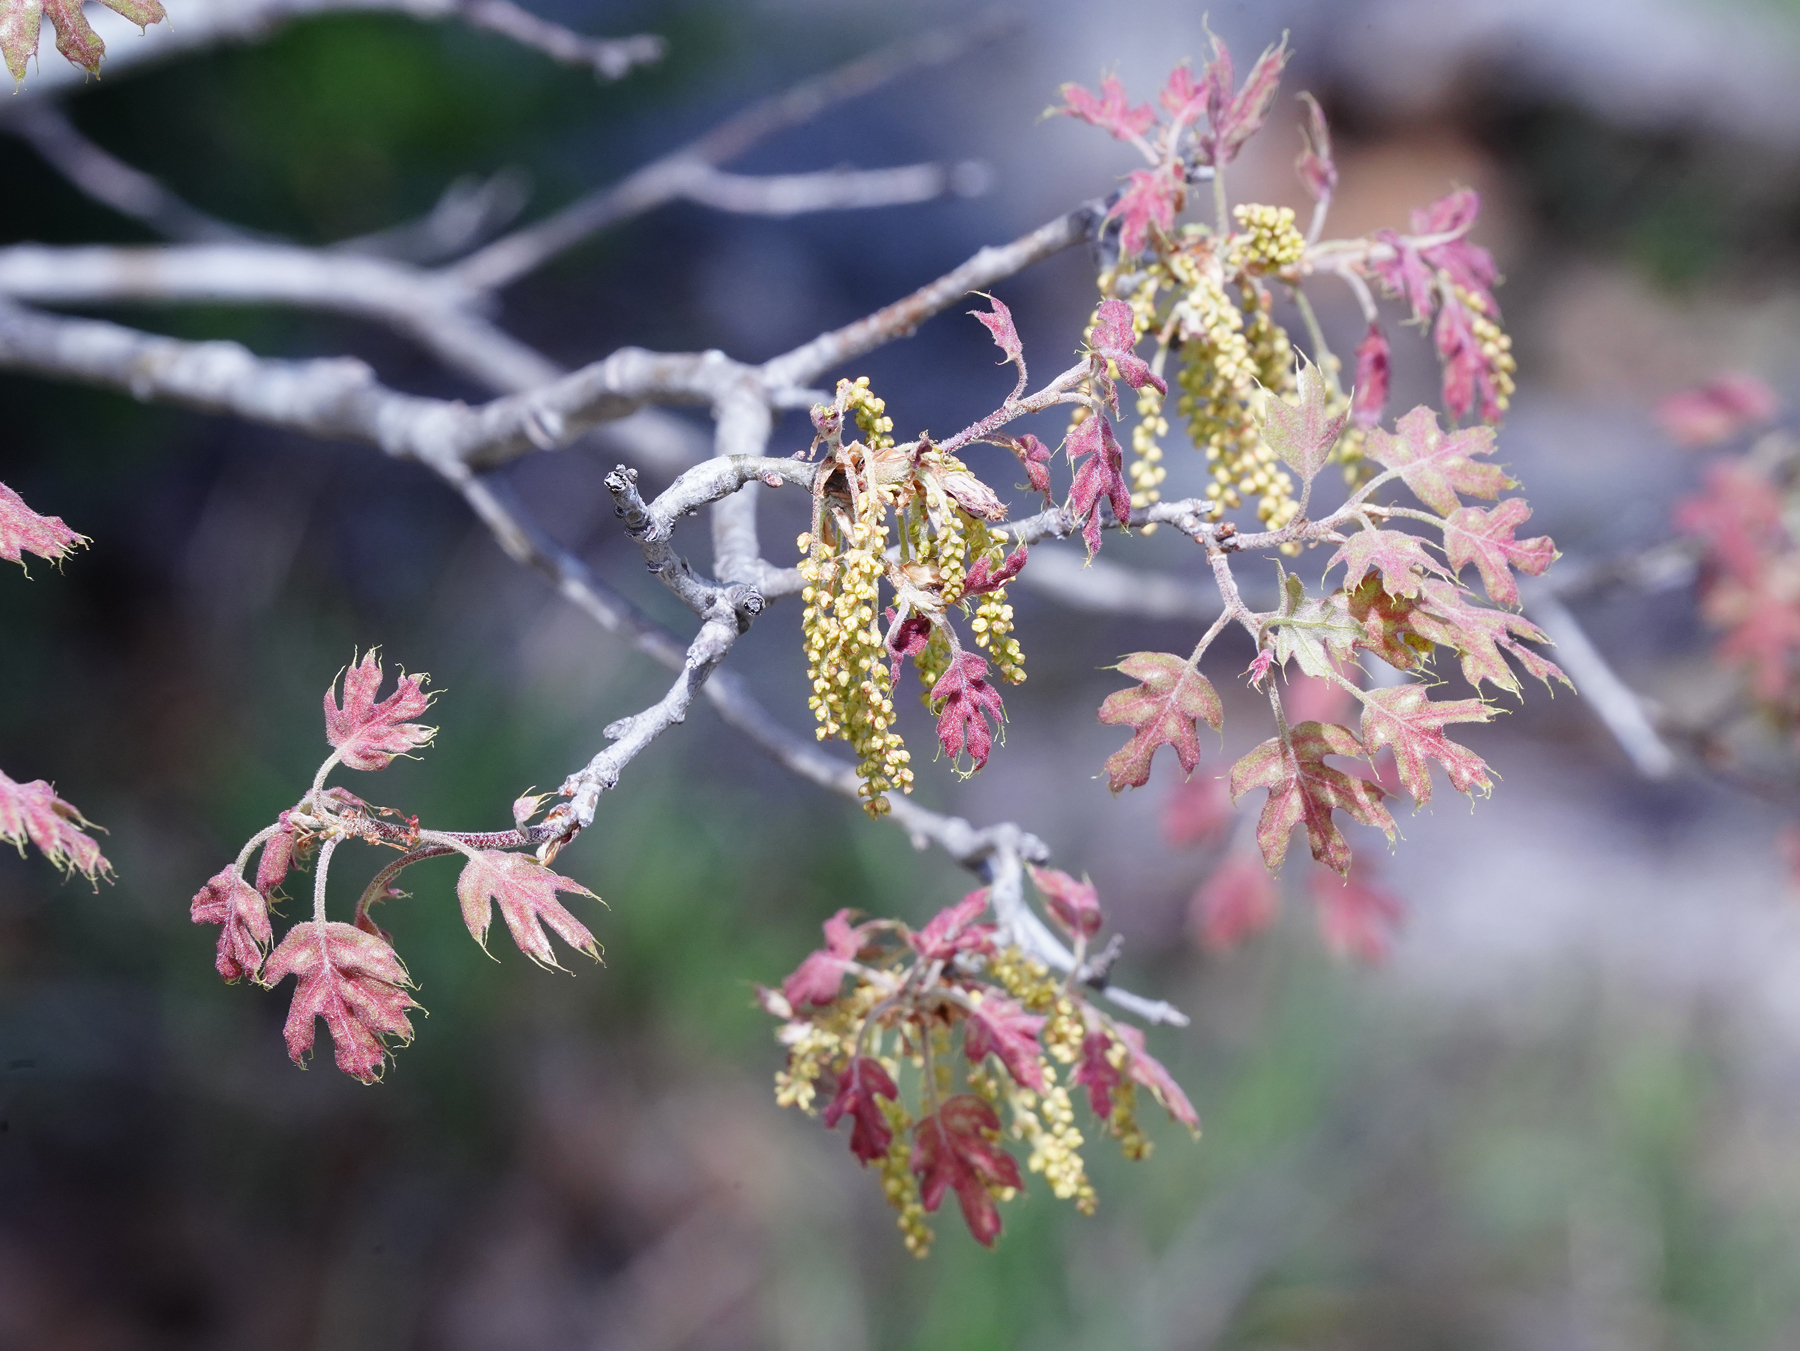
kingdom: Plantae
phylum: Tracheophyta
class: Magnoliopsida
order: Fagales
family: Fagaceae
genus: Quercus
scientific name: Quercus buckleyi
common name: Buckley oak
